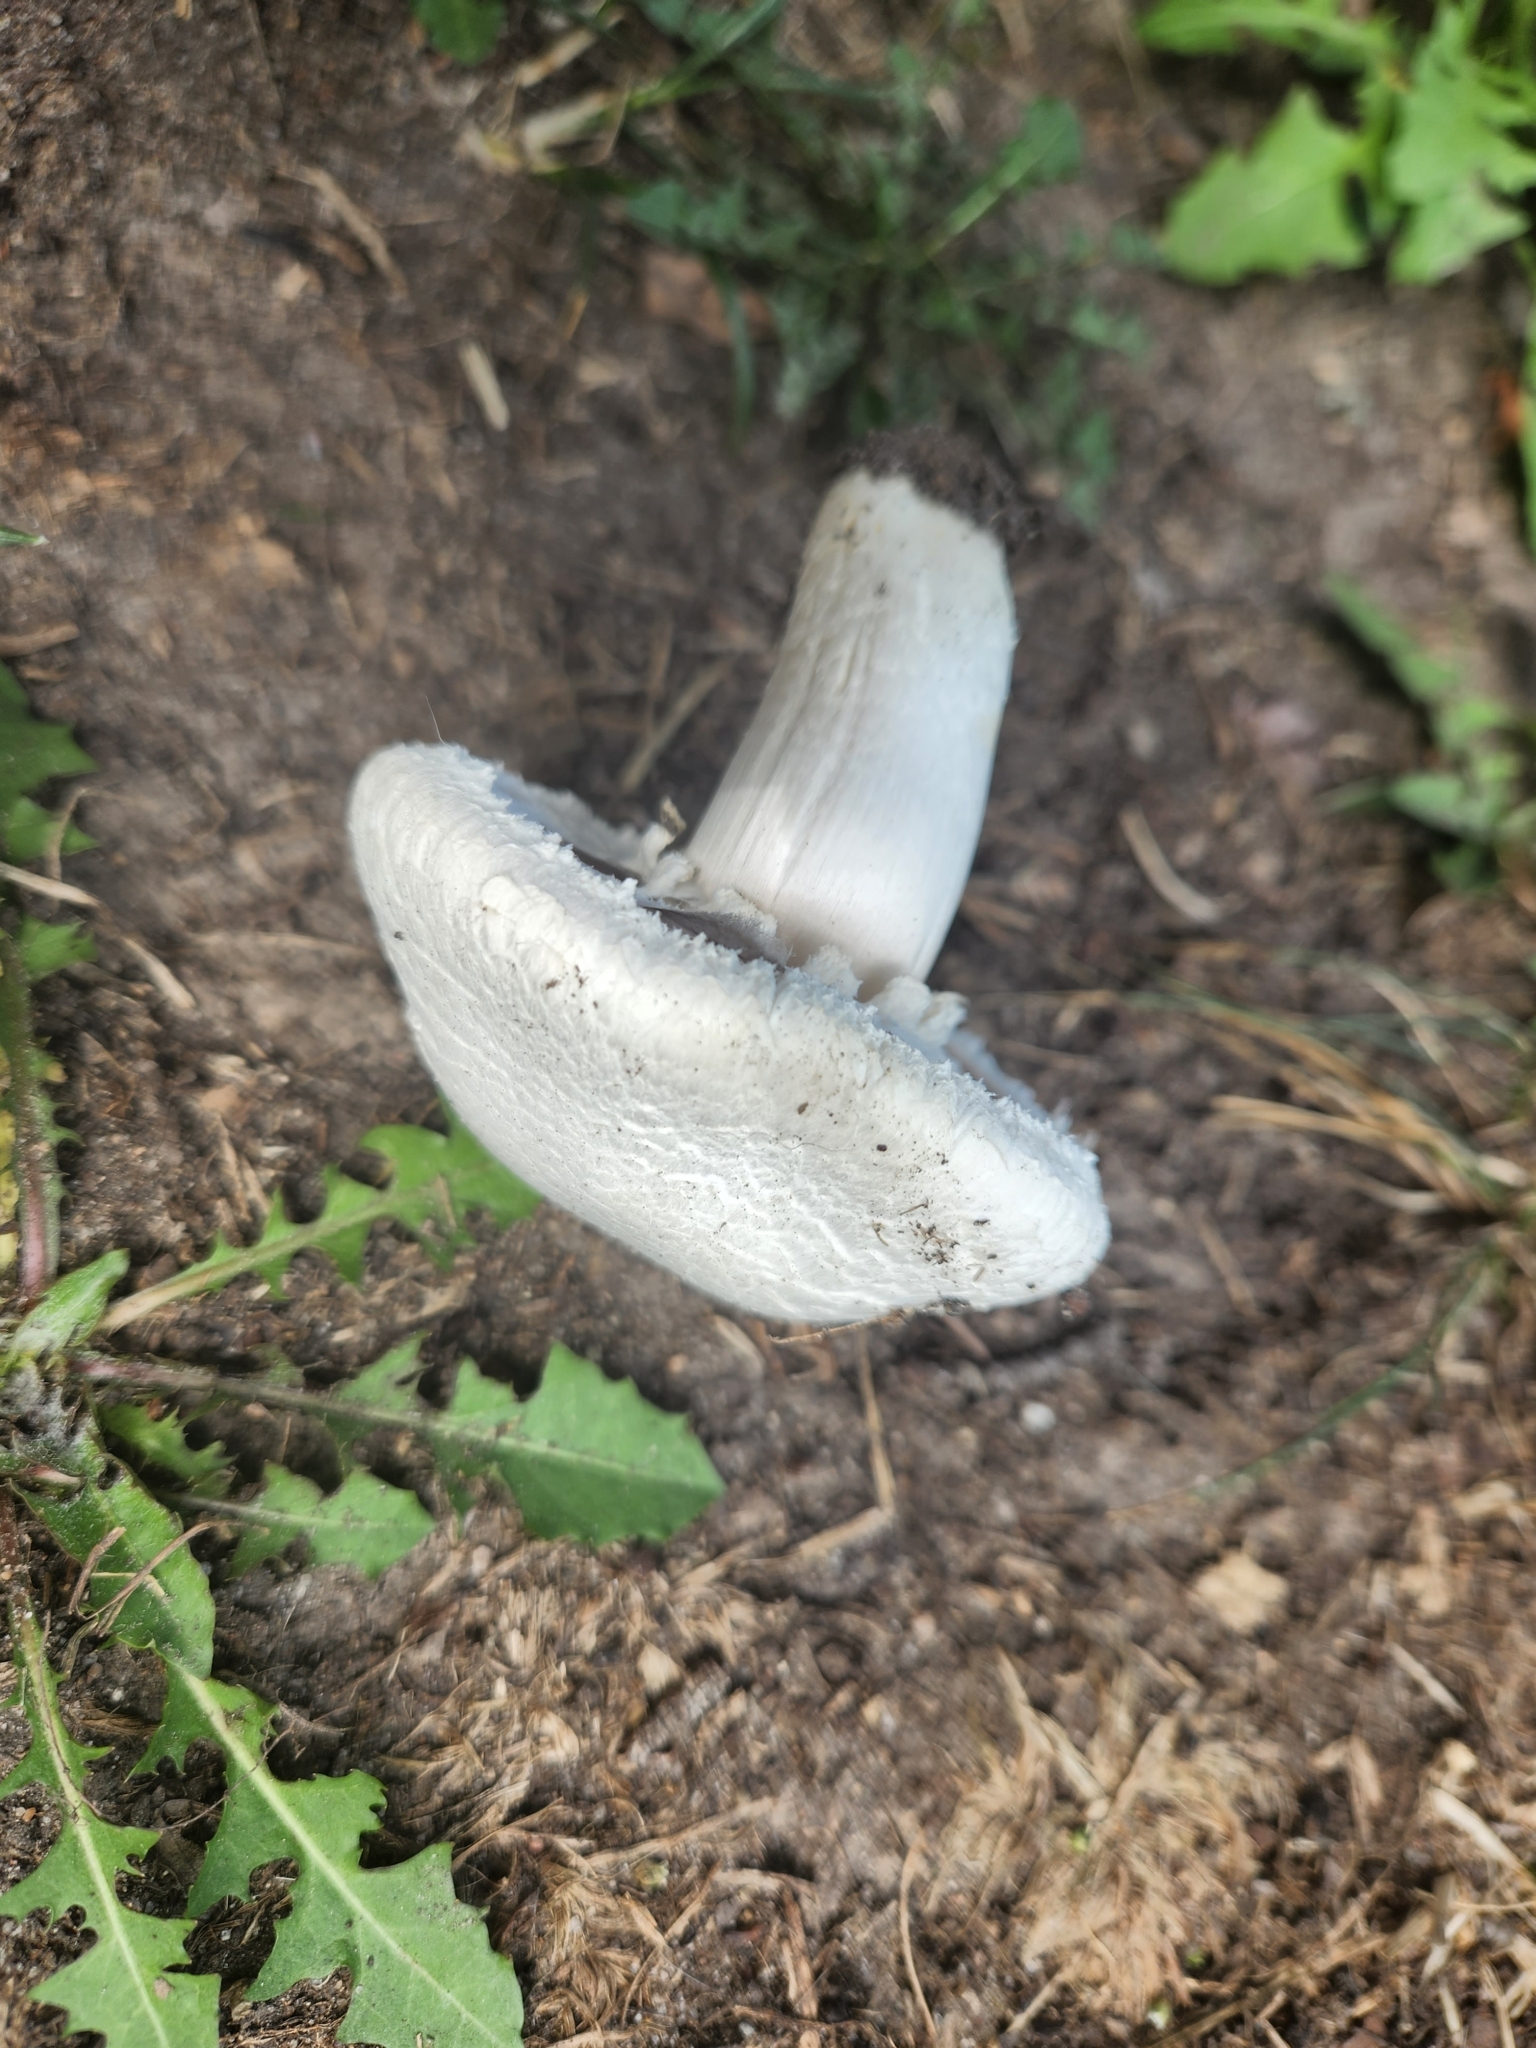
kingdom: Fungi
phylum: Basidiomycota
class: Agaricomycetes
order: Agaricales
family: Agaricaceae
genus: Agaricus
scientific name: Agaricus arvensis
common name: Horse mushroom
